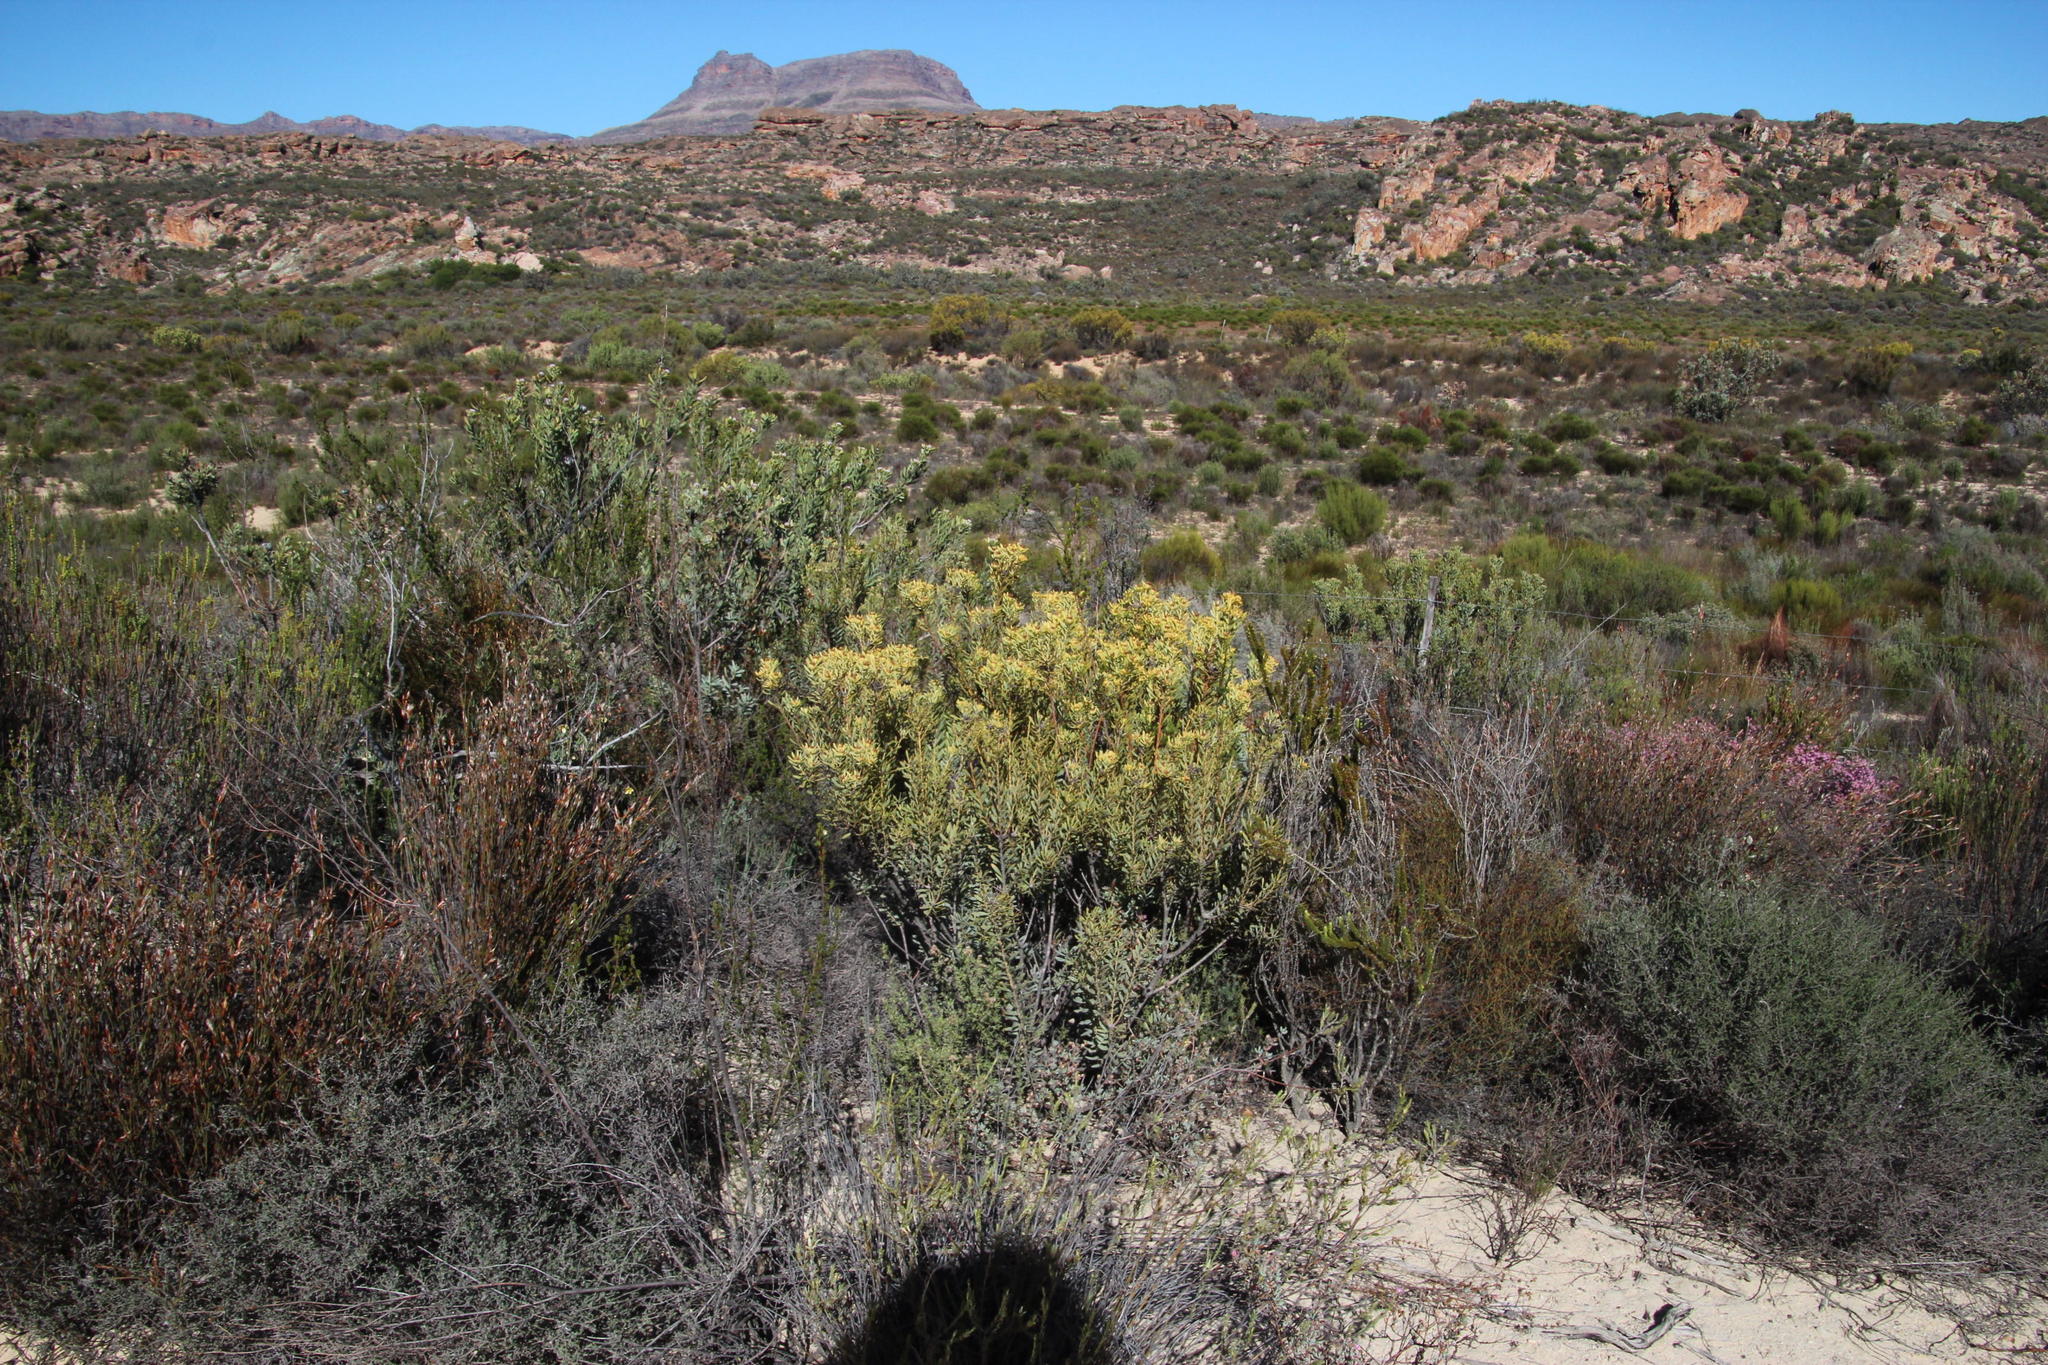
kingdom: Plantae
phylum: Tracheophyta
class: Magnoliopsida
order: Proteales
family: Proteaceae
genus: Leucadendron
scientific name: Leucadendron loranthifolium
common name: Green-flower sunbush
